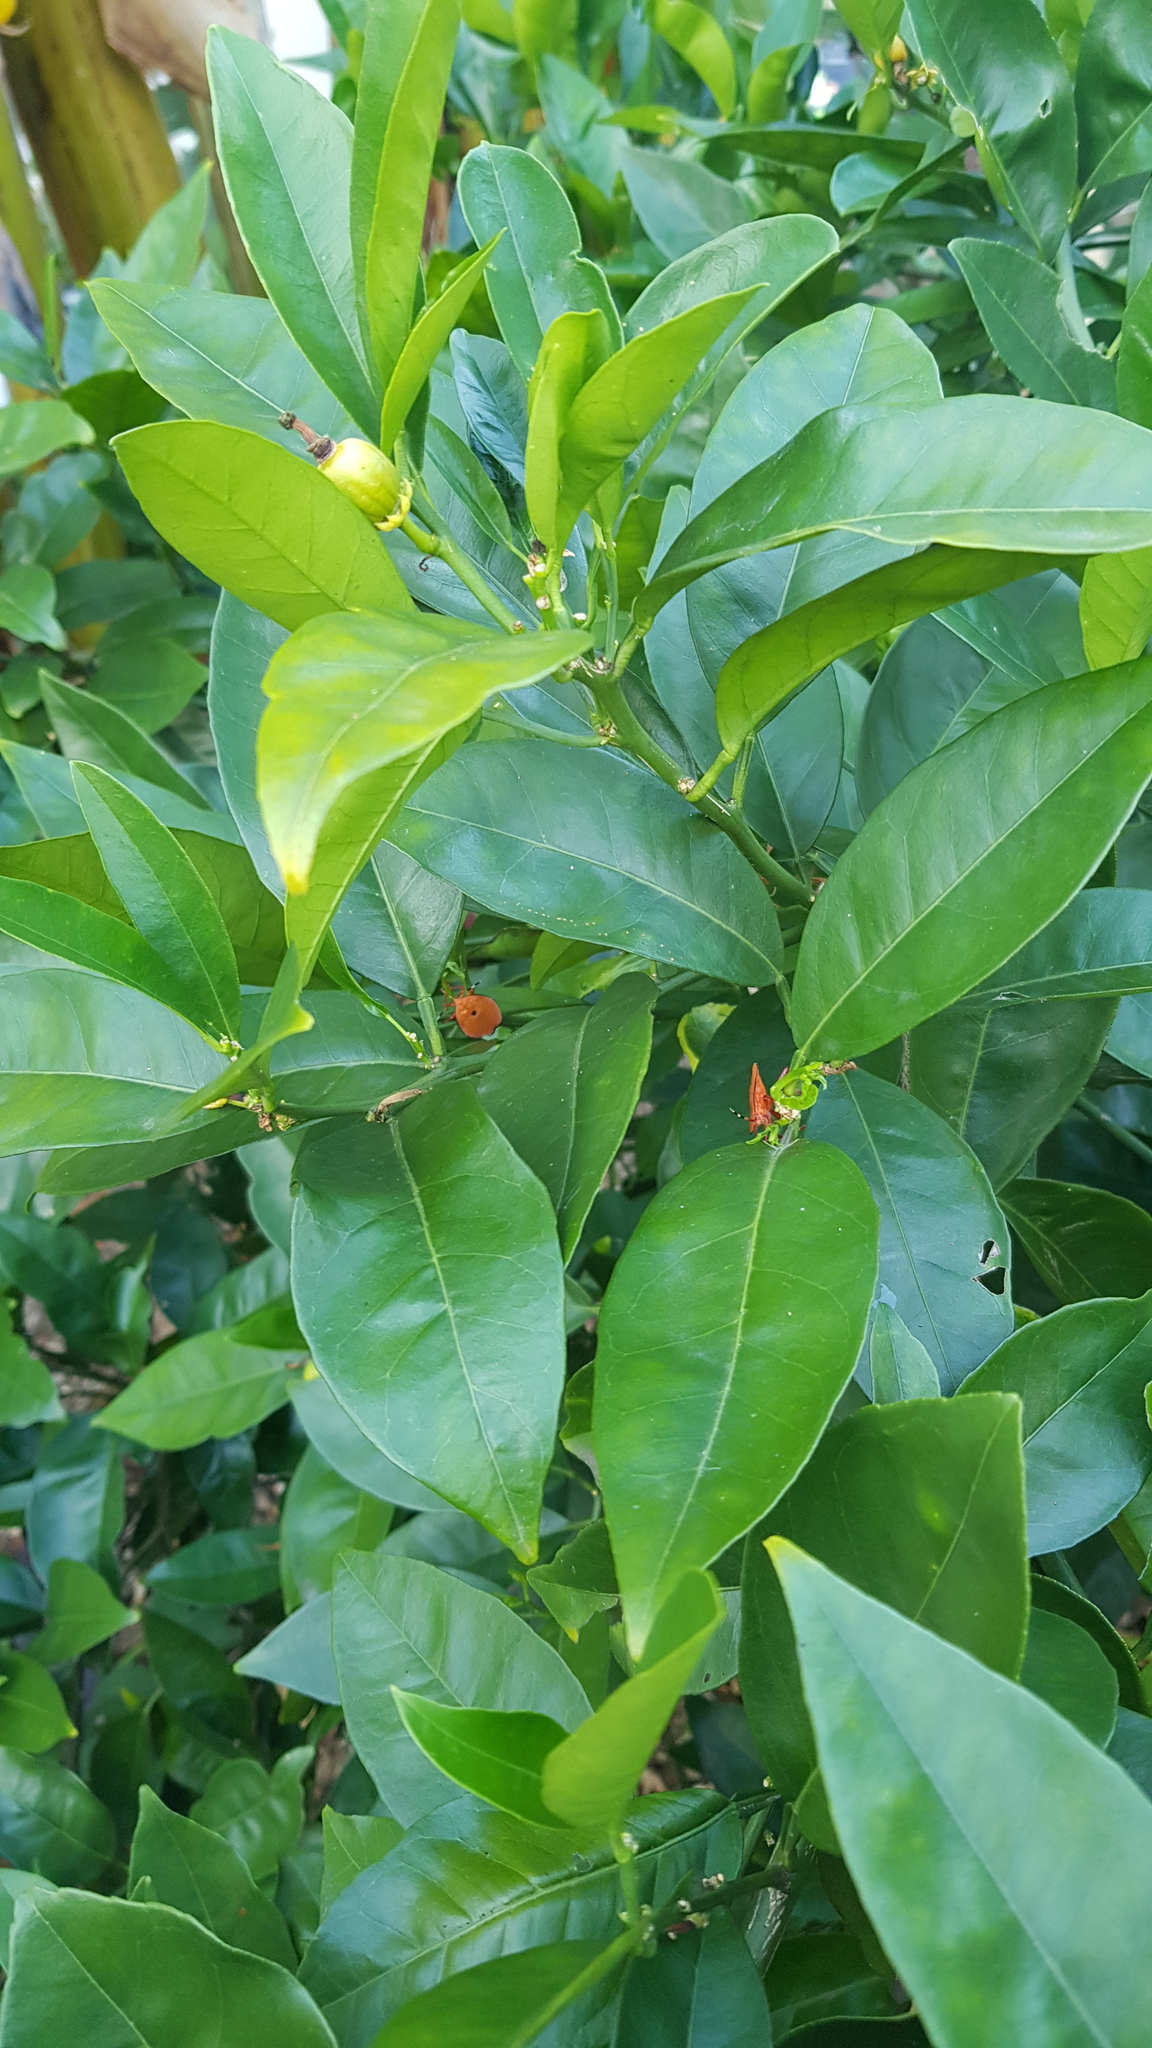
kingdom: Animalia
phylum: Arthropoda
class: Insecta
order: Hemiptera
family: Tessaratomidae
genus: Musgraveia
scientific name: Musgraveia sulciventris
